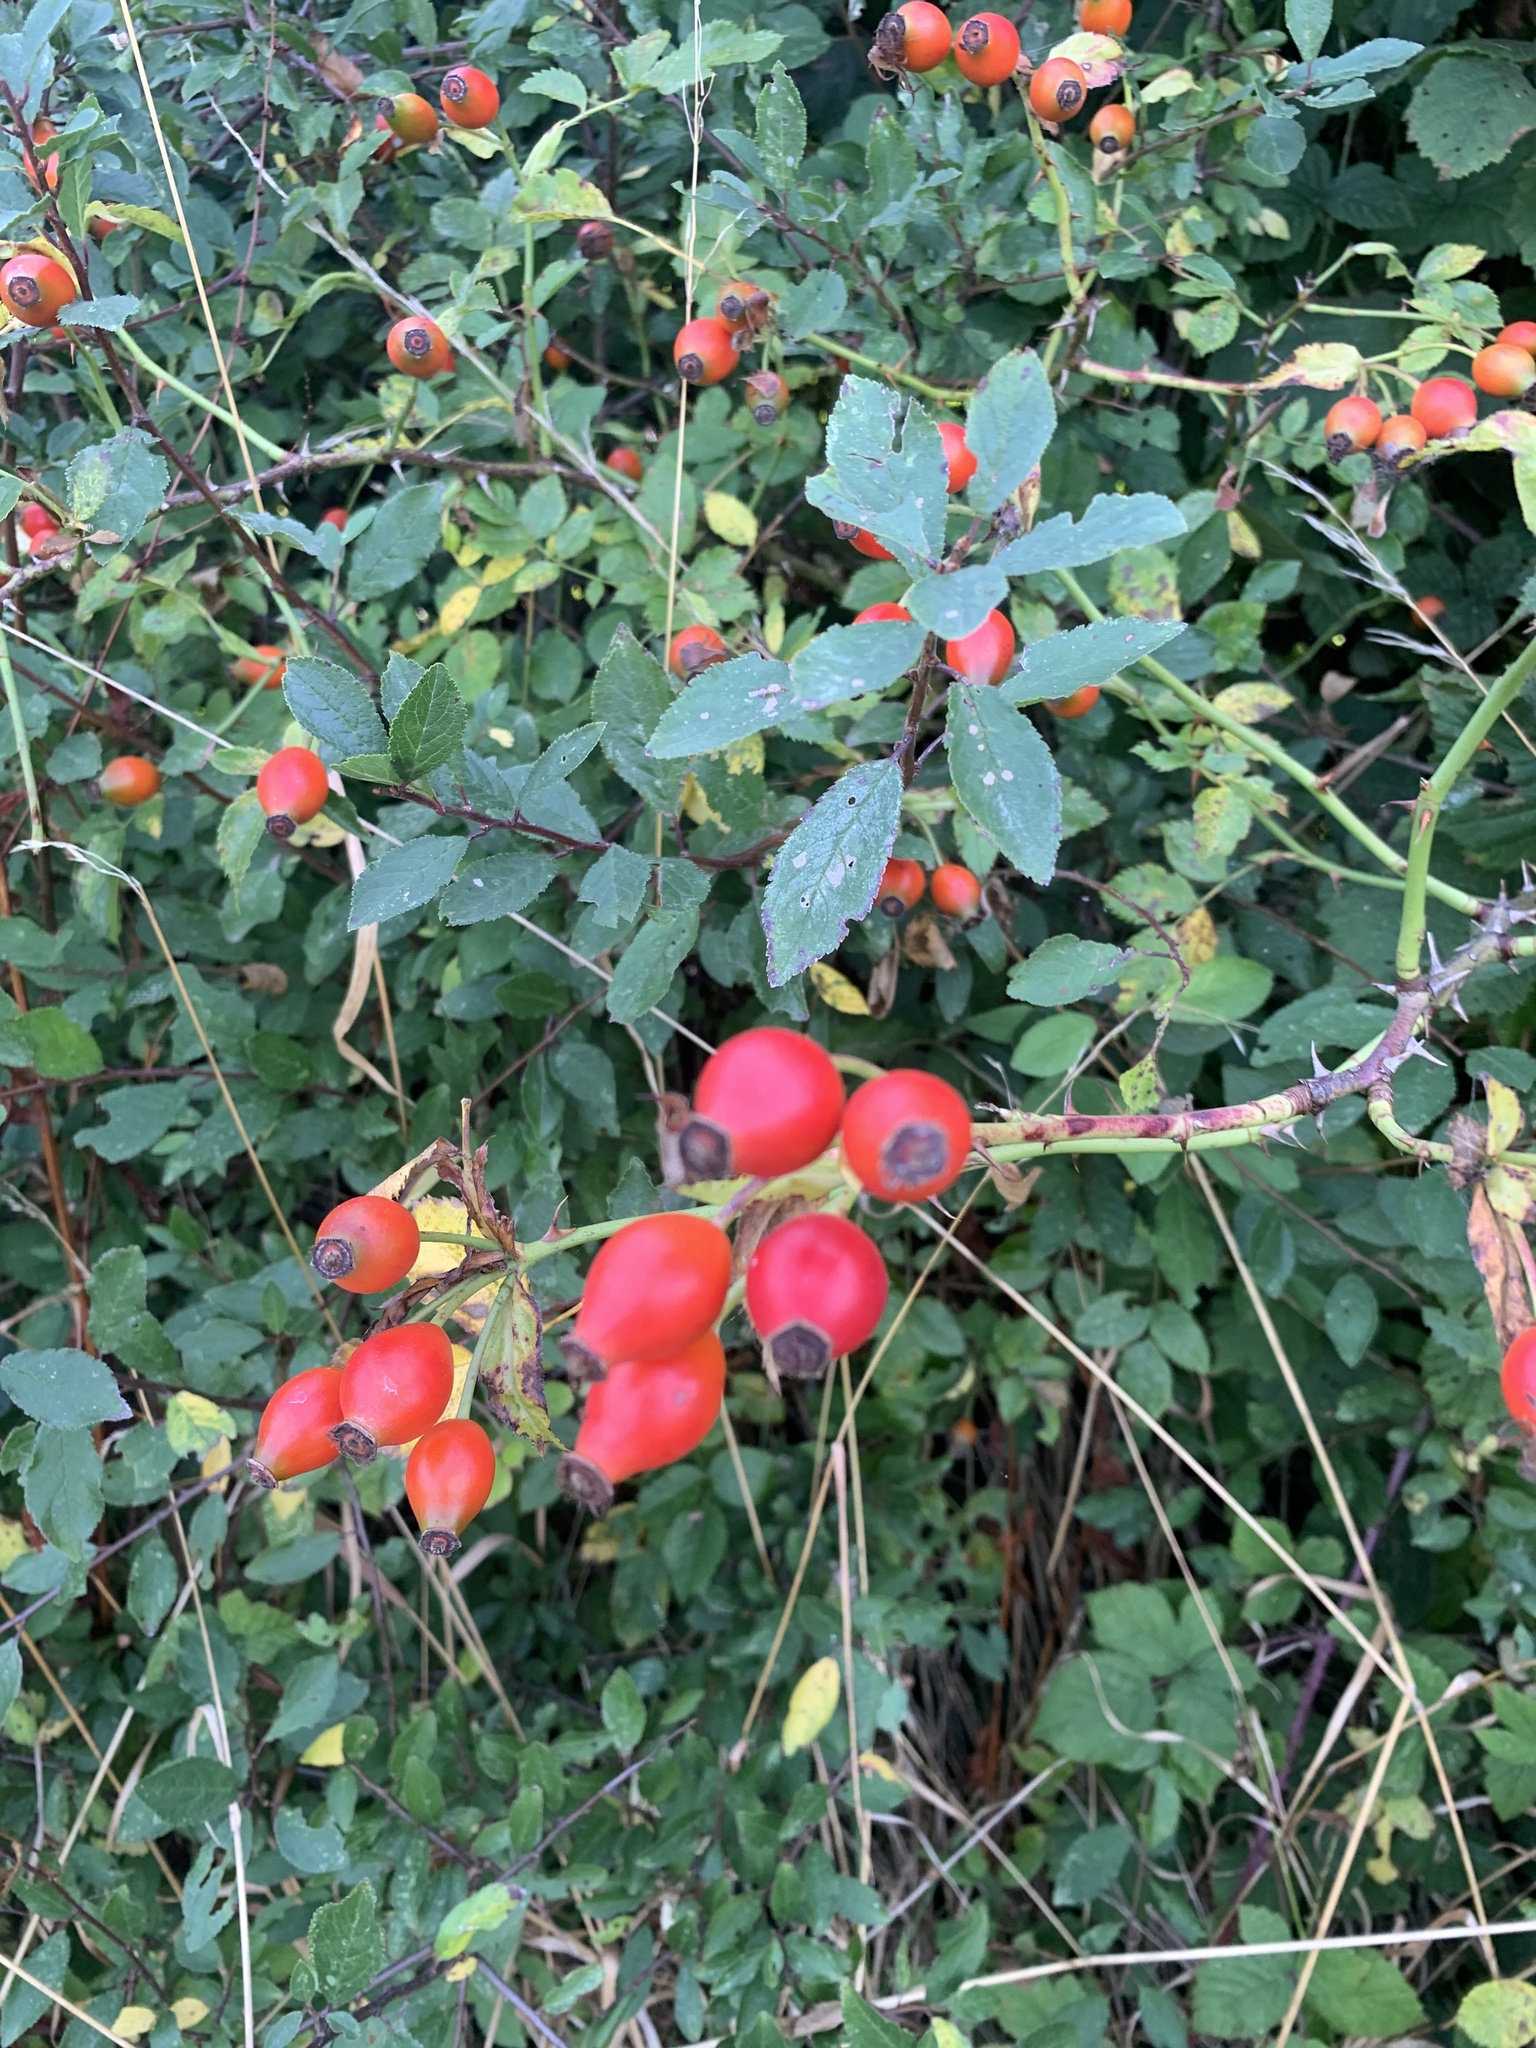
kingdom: Plantae
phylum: Tracheophyta
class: Magnoliopsida
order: Rosales
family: Rosaceae
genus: Rosa
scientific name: Rosa canina
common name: Dog rose
